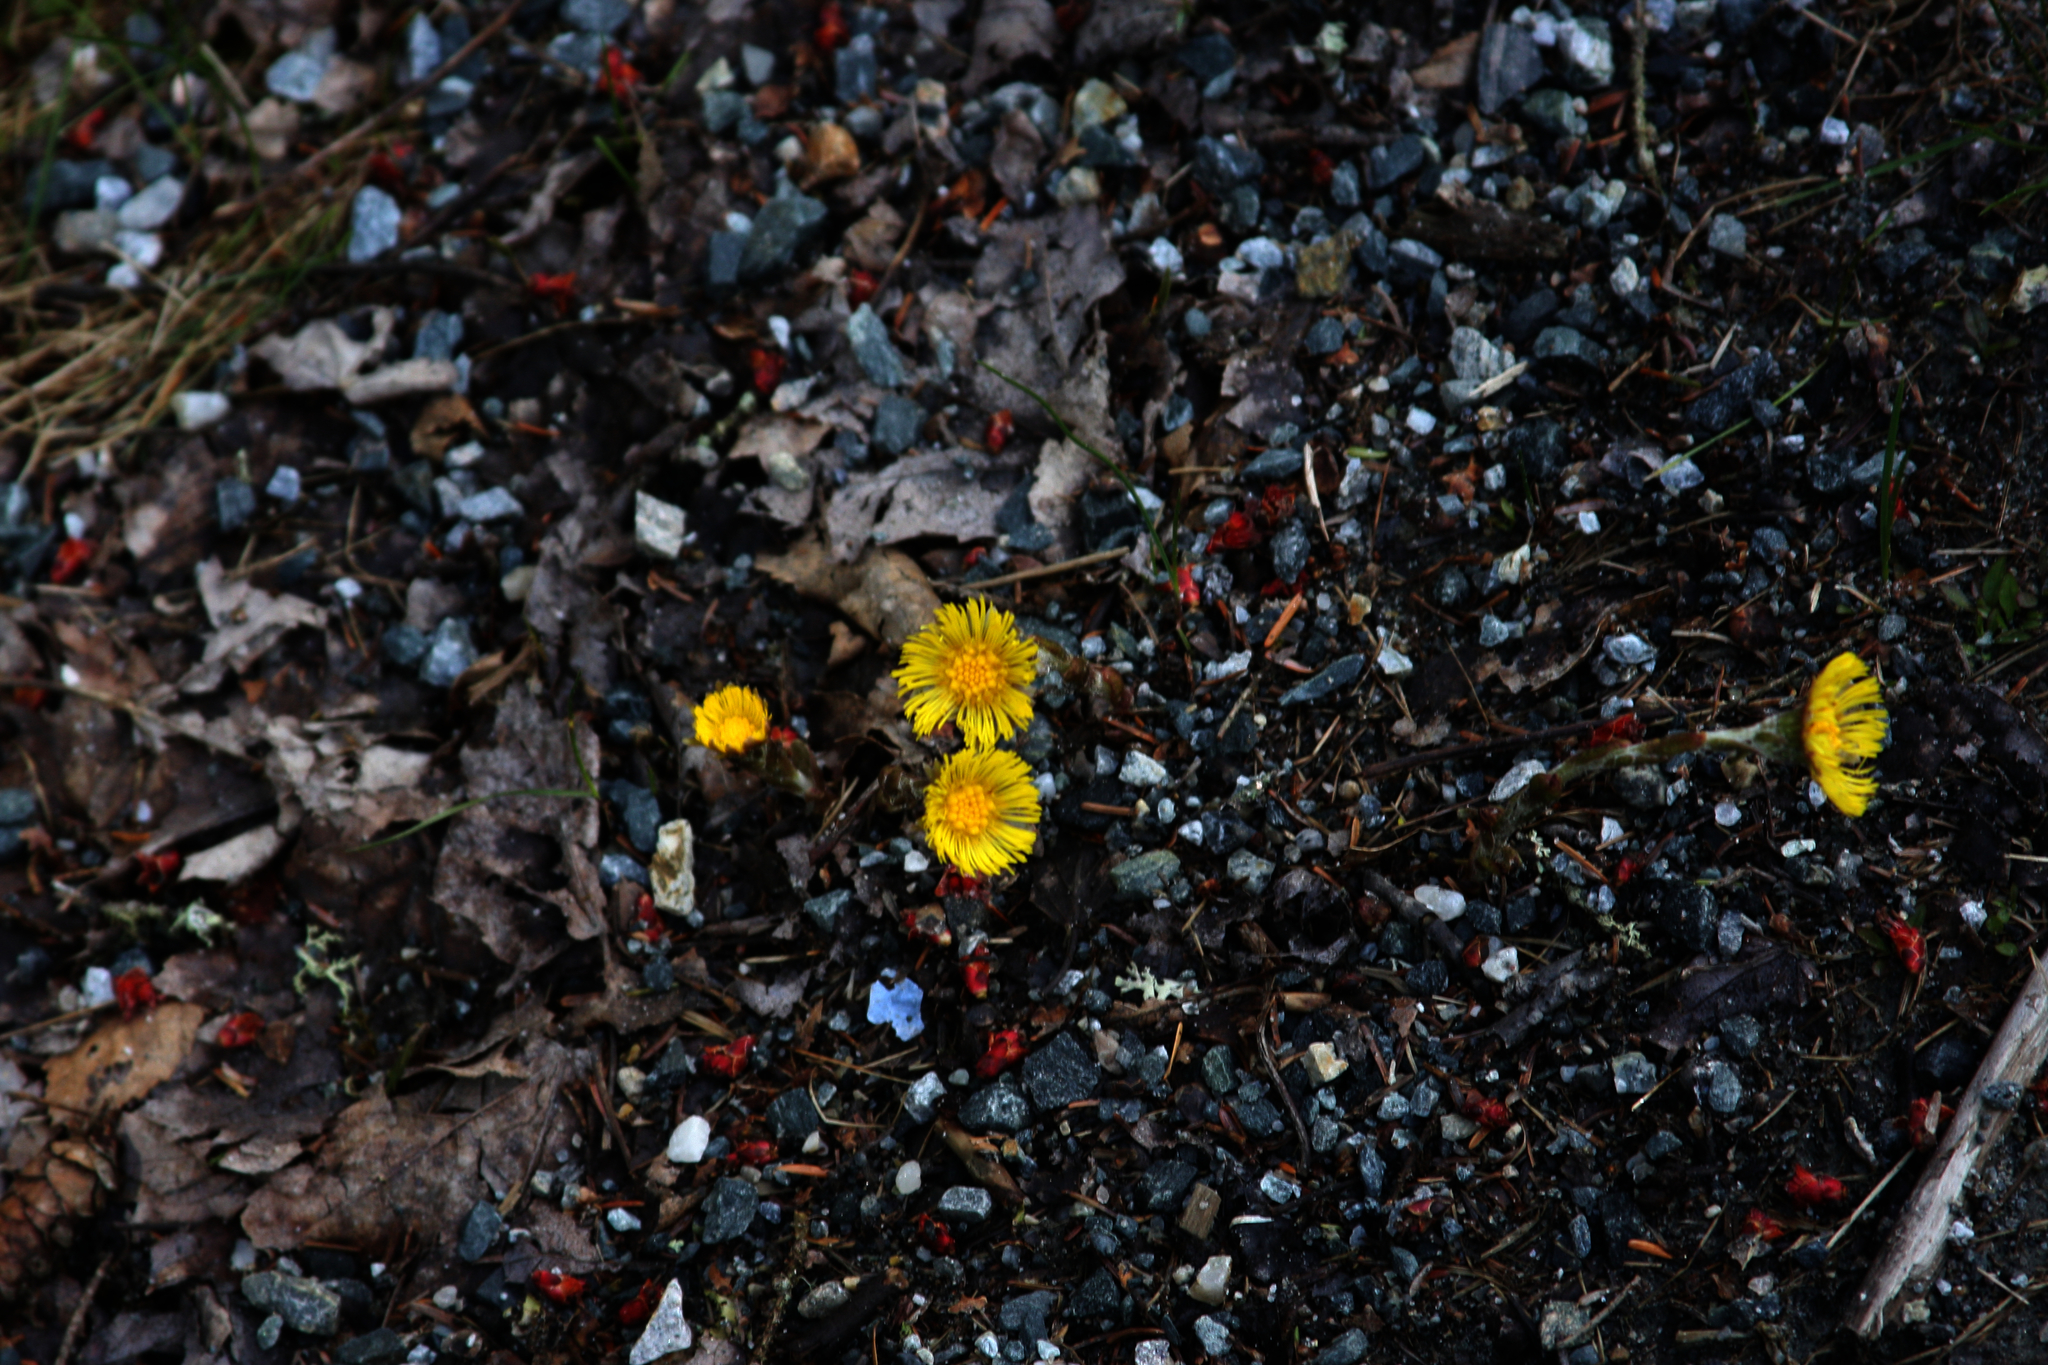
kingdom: Plantae
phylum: Tracheophyta
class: Magnoliopsida
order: Asterales
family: Asteraceae
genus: Tussilago
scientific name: Tussilago farfara
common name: Coltsfoot
